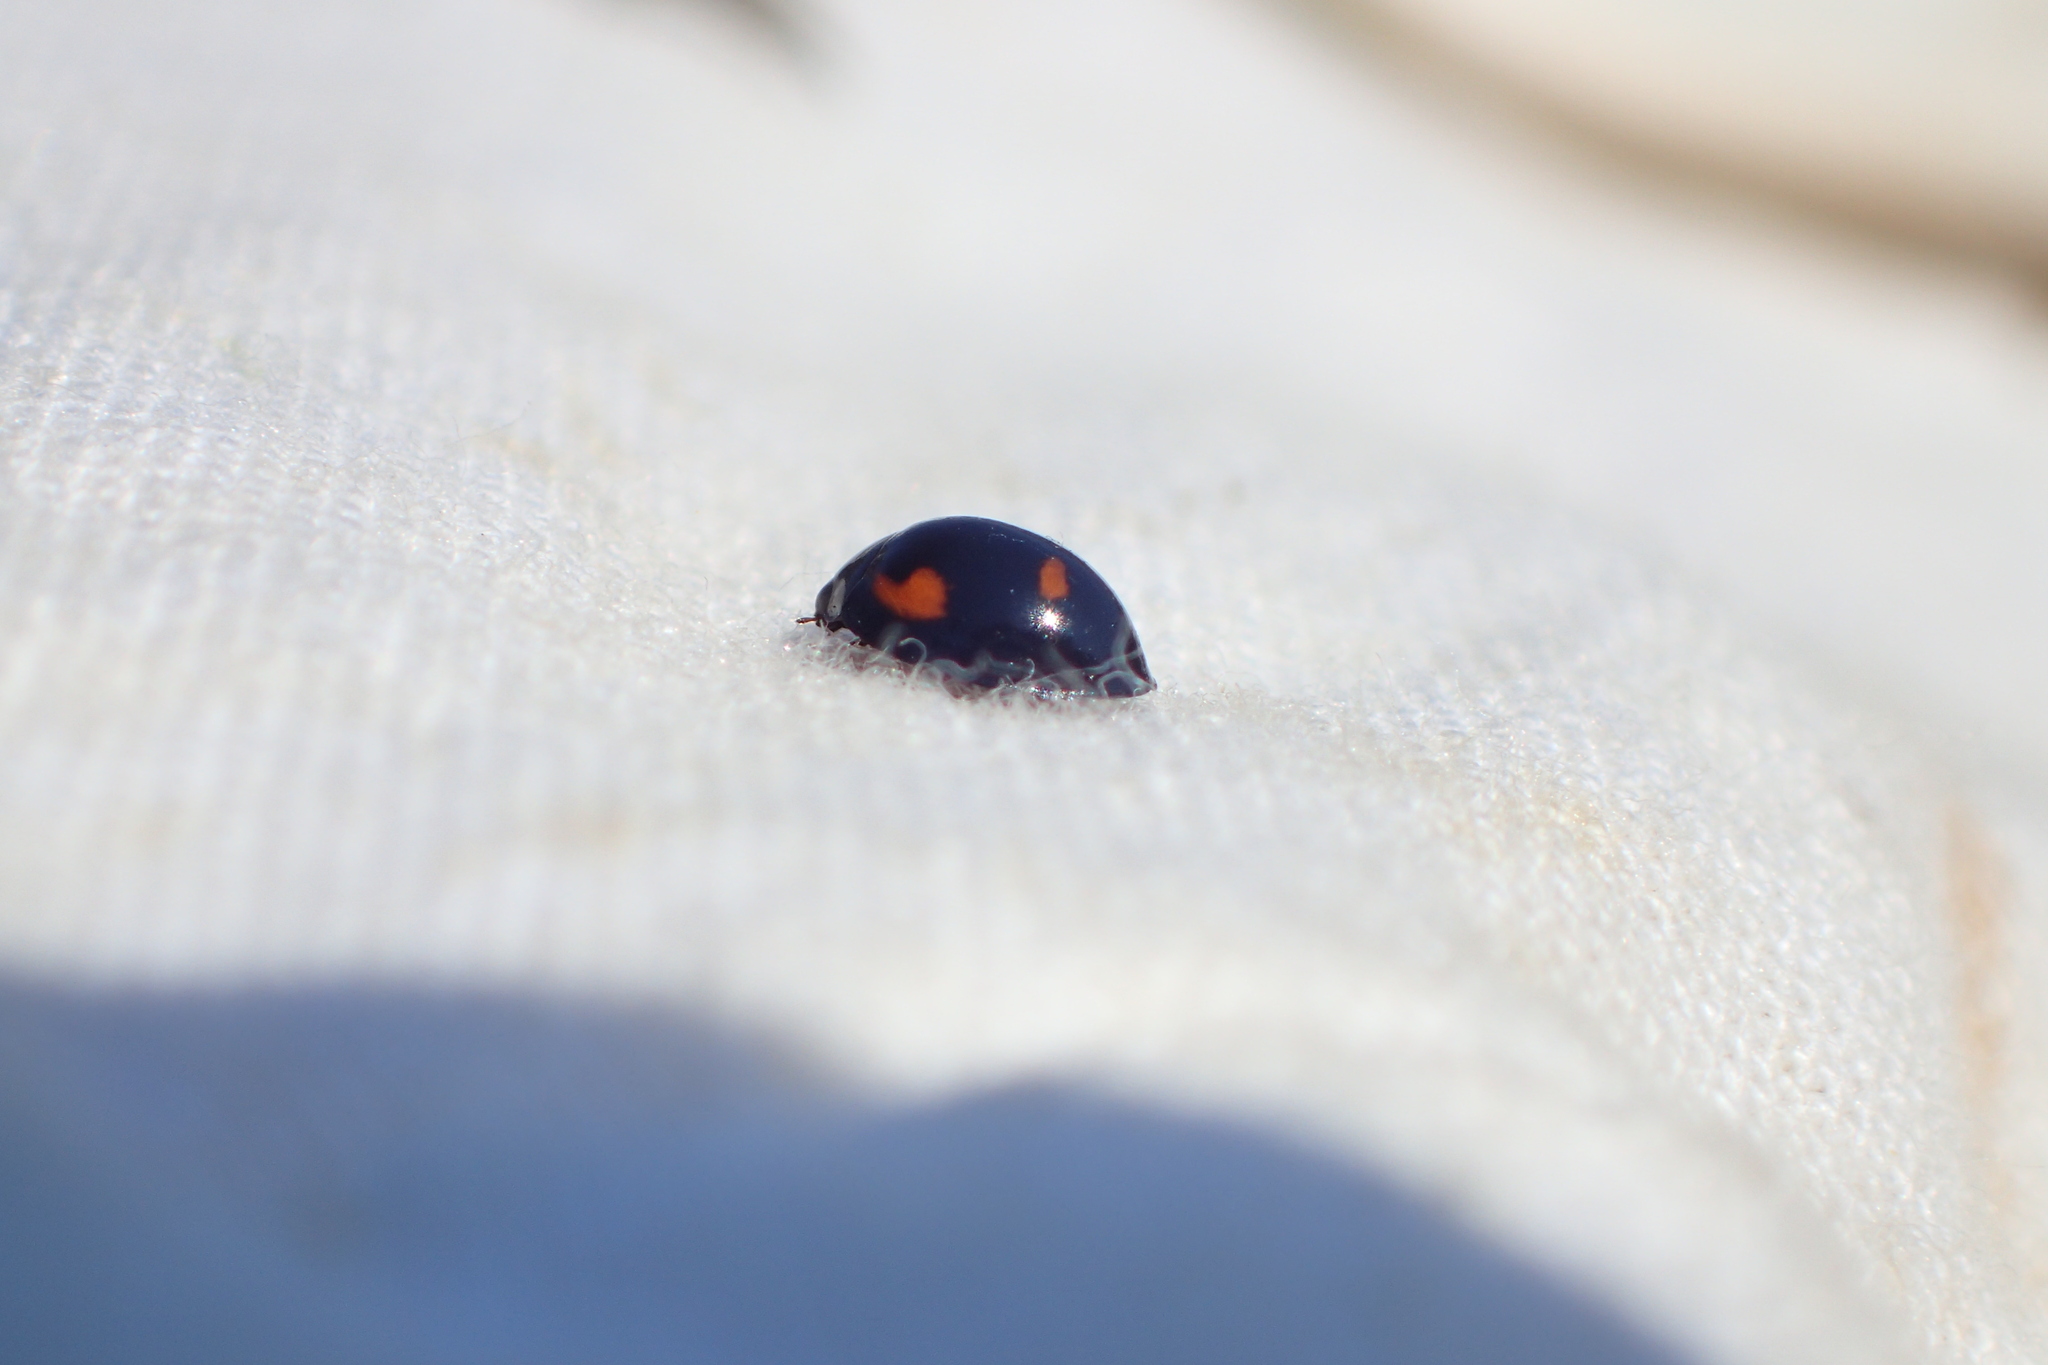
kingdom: Animalia
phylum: Arthropoda
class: Insecta
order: Coleoptera
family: Coccinellidae
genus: Brumus
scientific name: Brumus quadripustulatus
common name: Ladybird beetle
